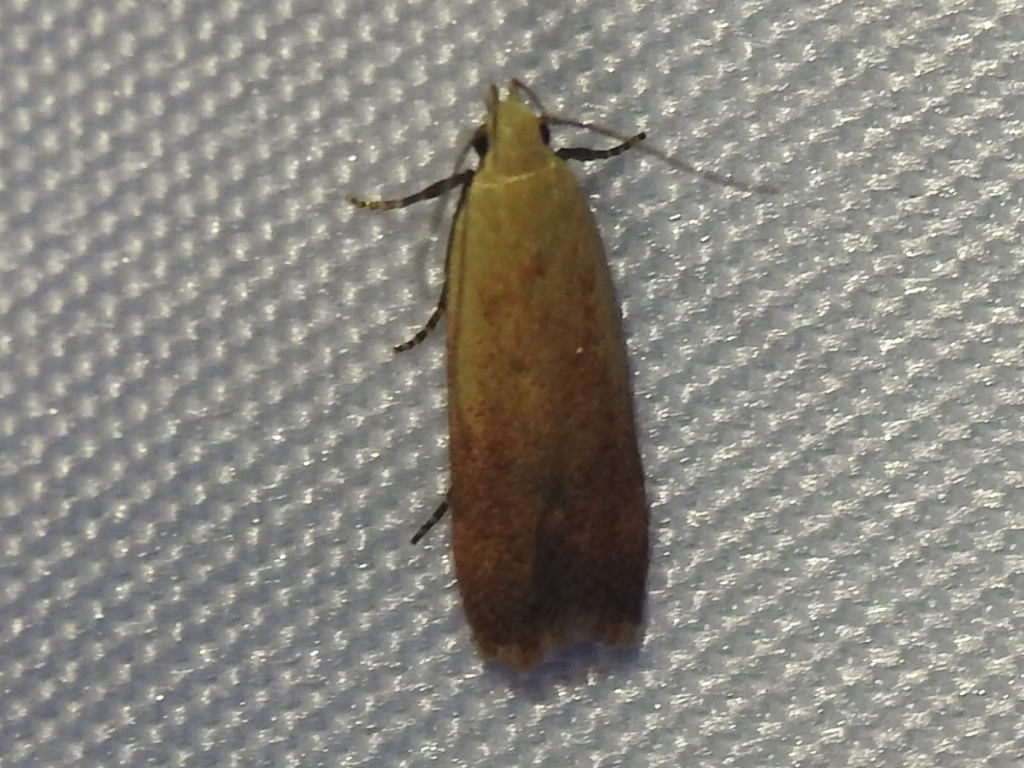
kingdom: Animalia
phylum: Arthropoda
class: Insecta
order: Lepidoptera
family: Gelechiidae
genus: Anacampsis
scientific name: Anacampsis fullonella
